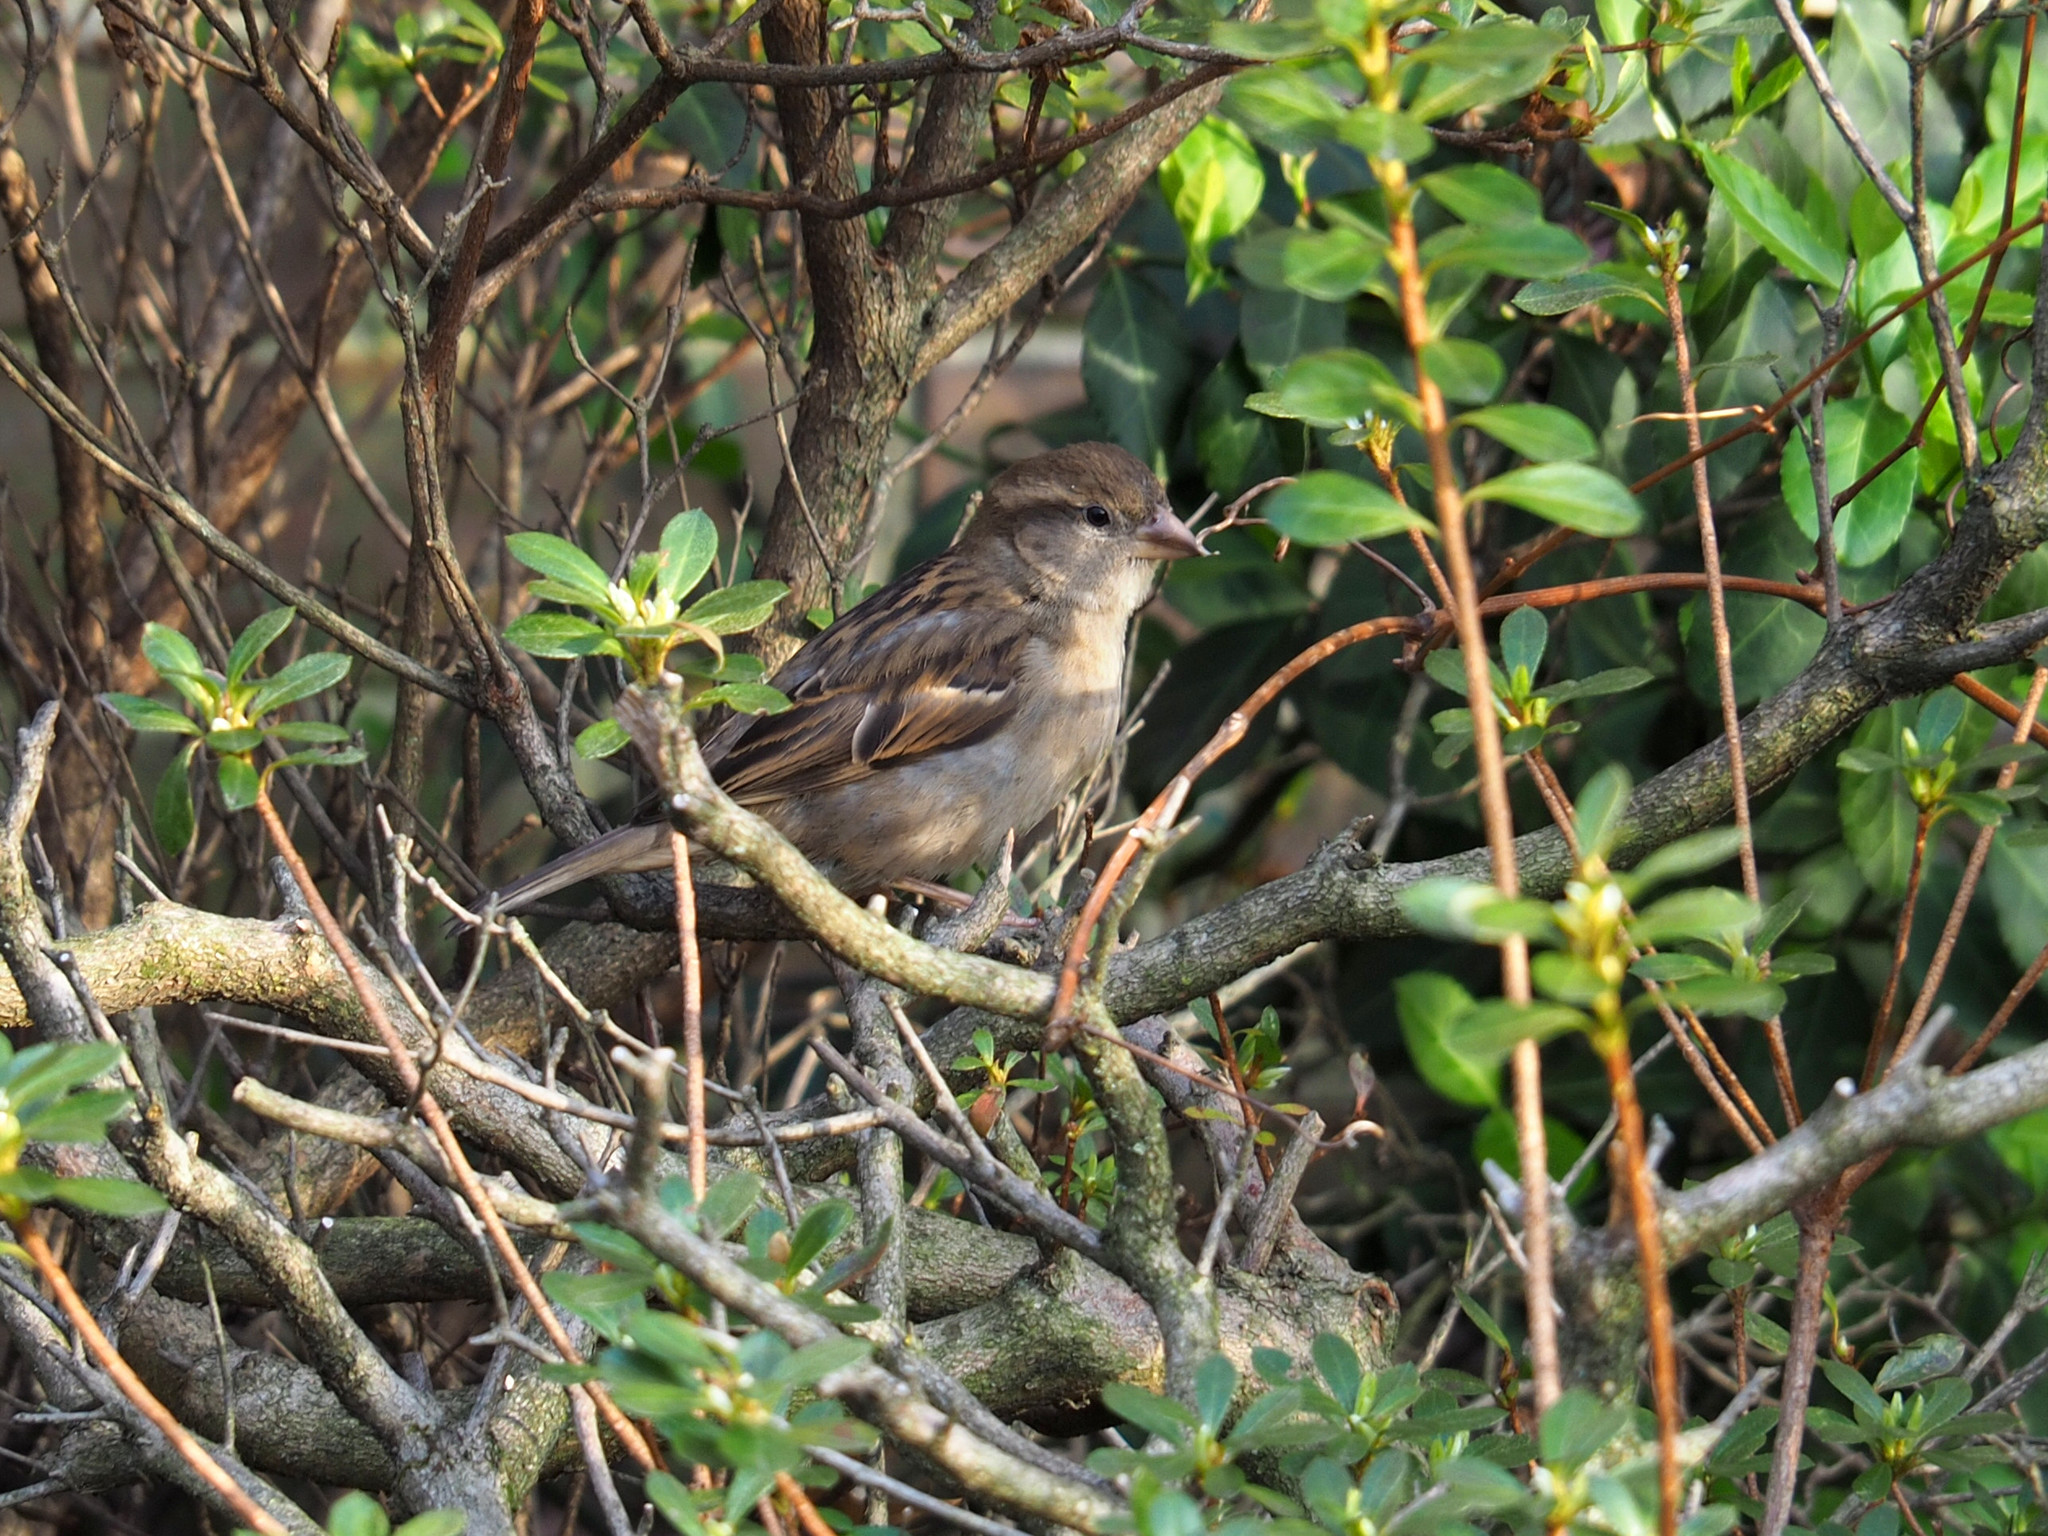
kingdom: Animalia
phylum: Chordata
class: Aves
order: Passeriformes
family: Passeridae
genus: Passer
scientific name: Passer domesticus
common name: House sparrow
